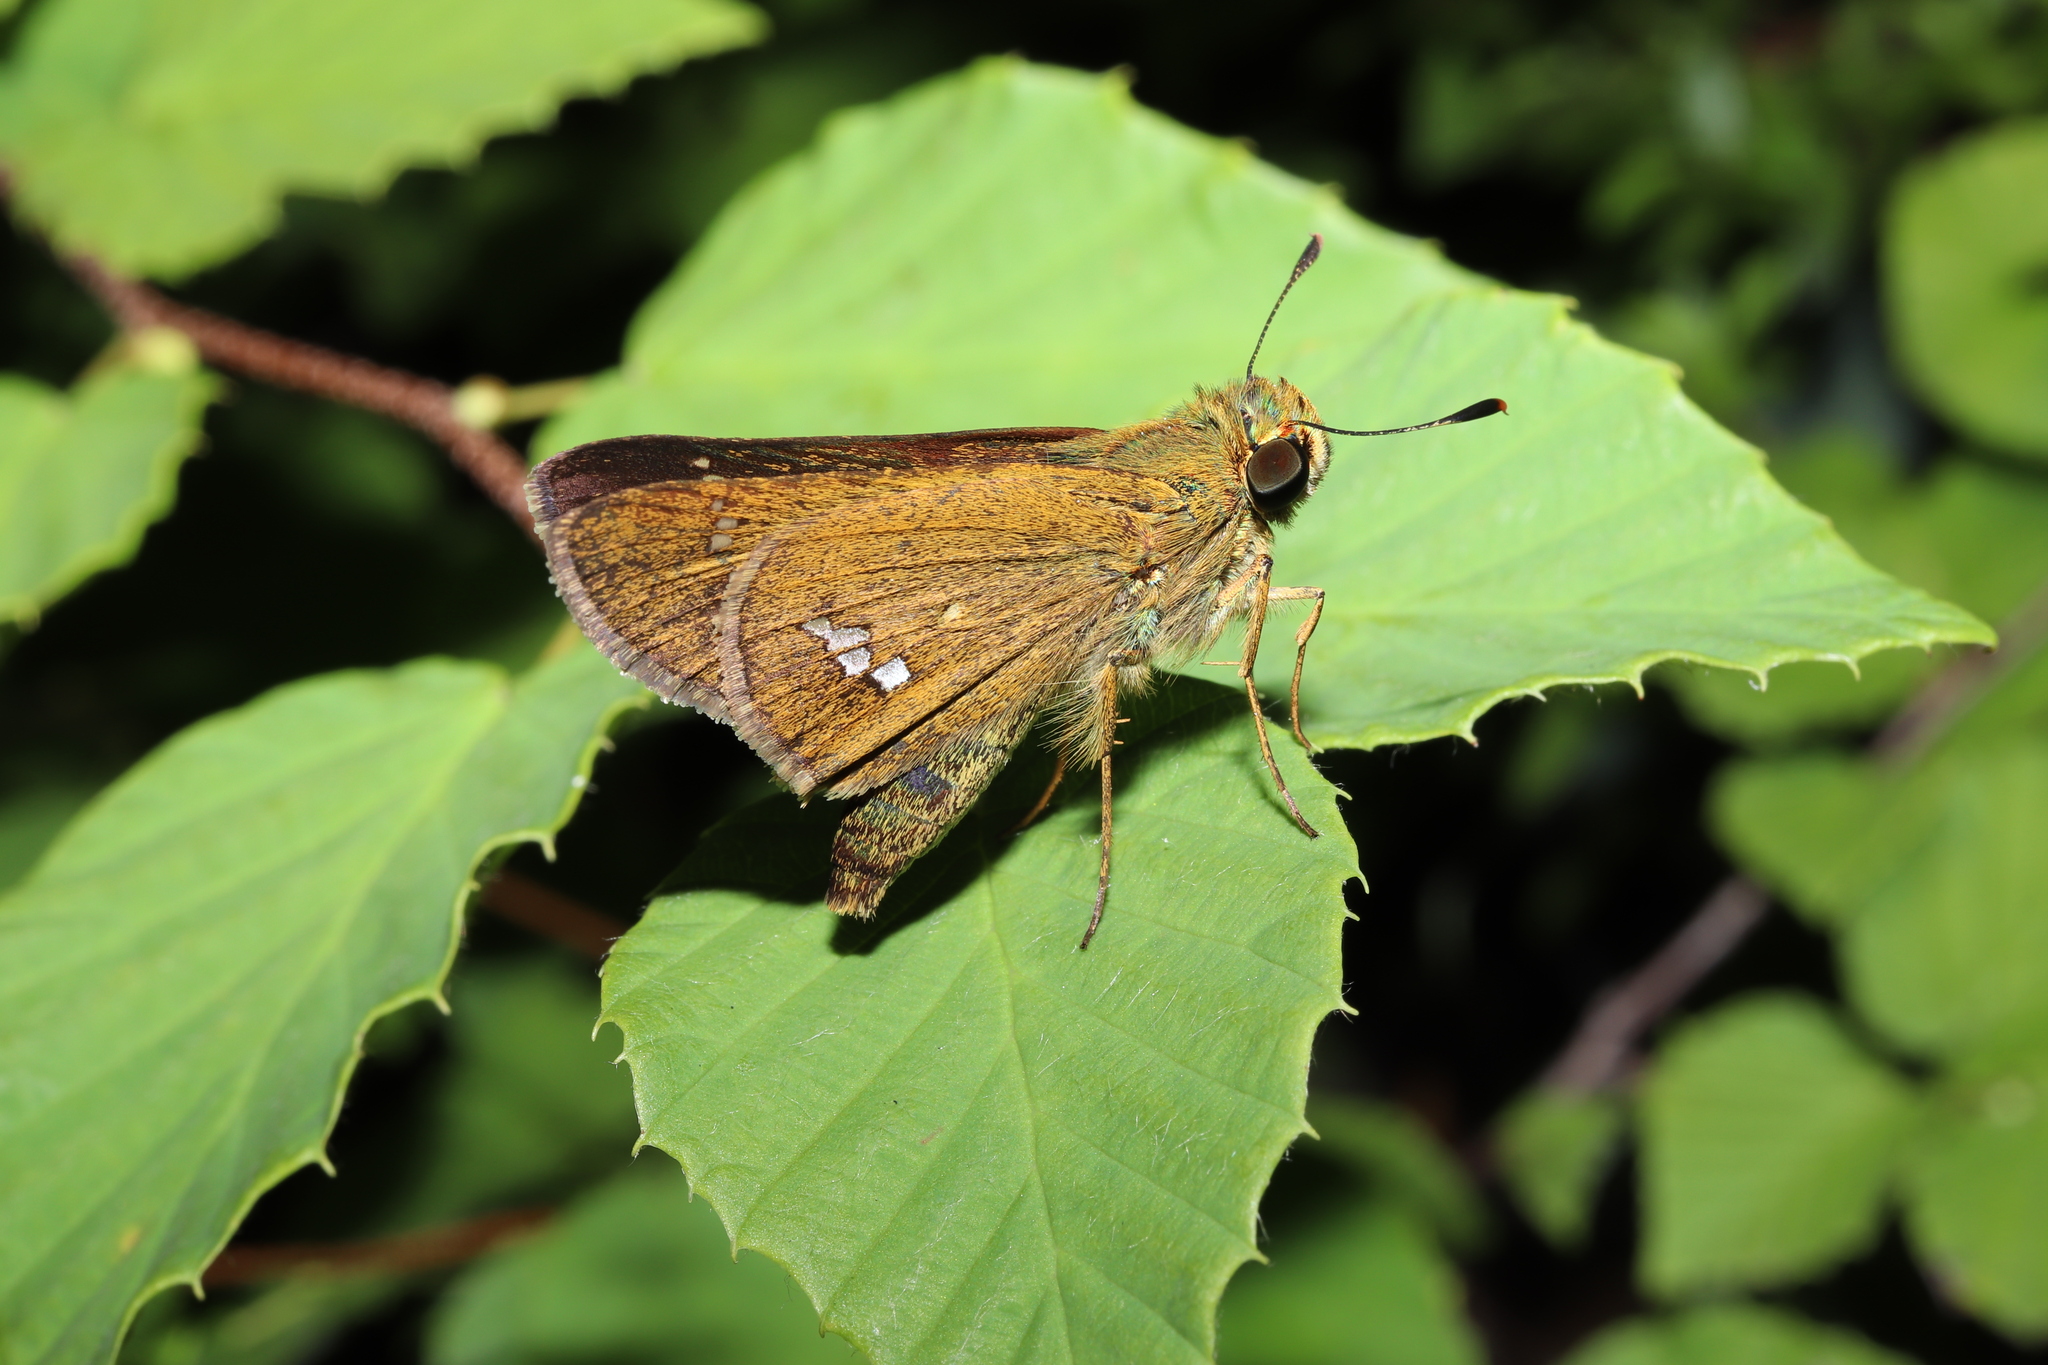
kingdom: Animalia
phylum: Arthropoda
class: Insecta
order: Lepidoptera
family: Hesperiidae
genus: Parnara
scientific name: Parnara guttatus
